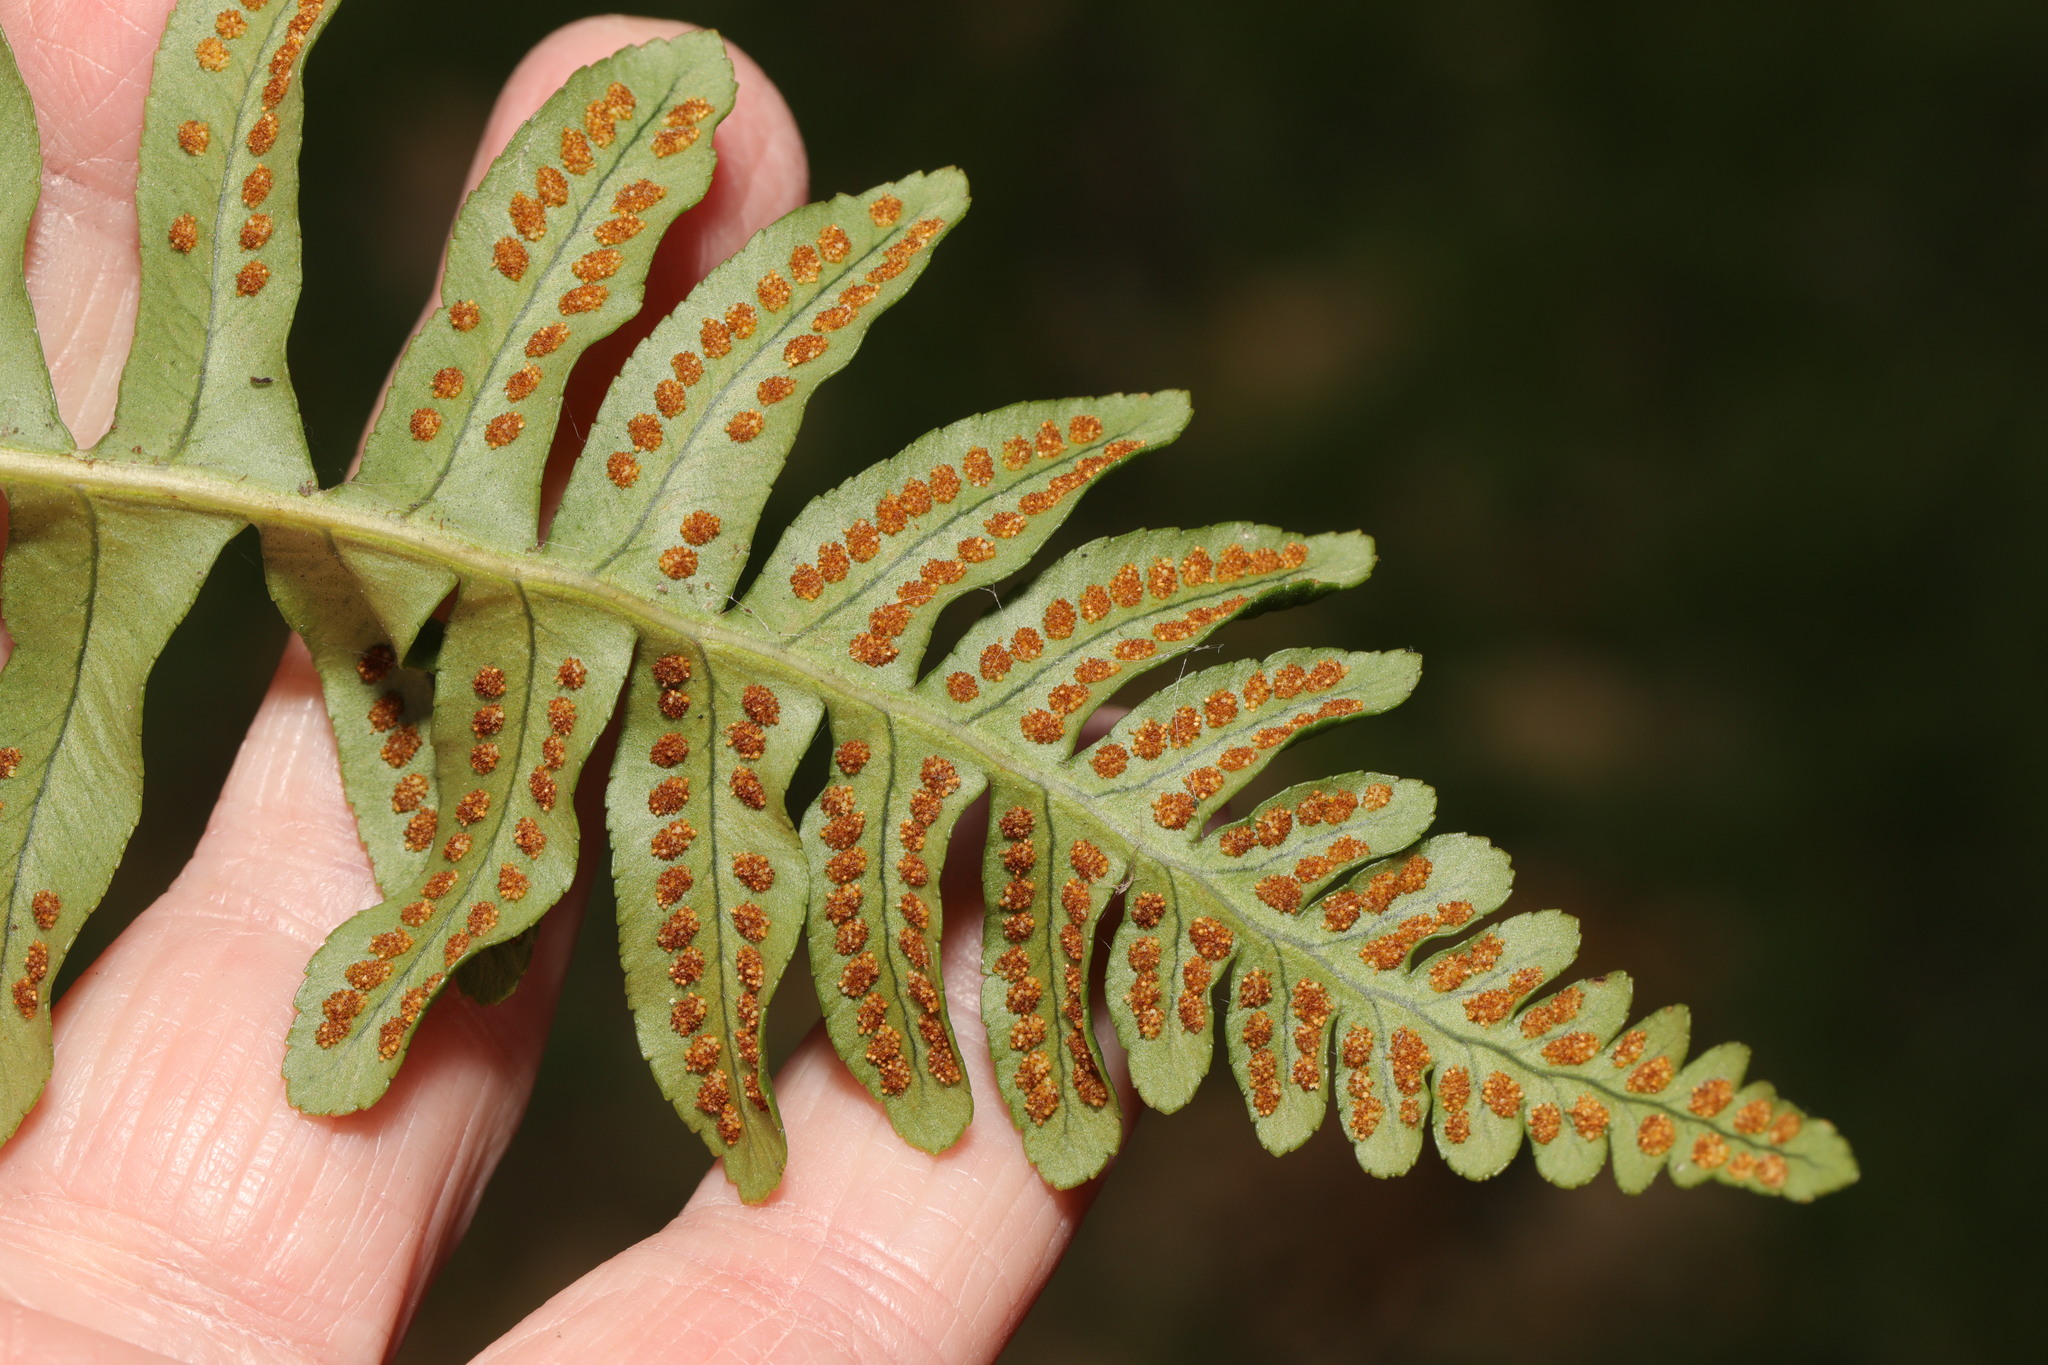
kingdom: Plantae
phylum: Tracheophyta
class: Polypodiopsida
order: Polypodiales
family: Polypodiaceae
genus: Polypodium
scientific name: Polypodium vulgare
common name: Common polypody
